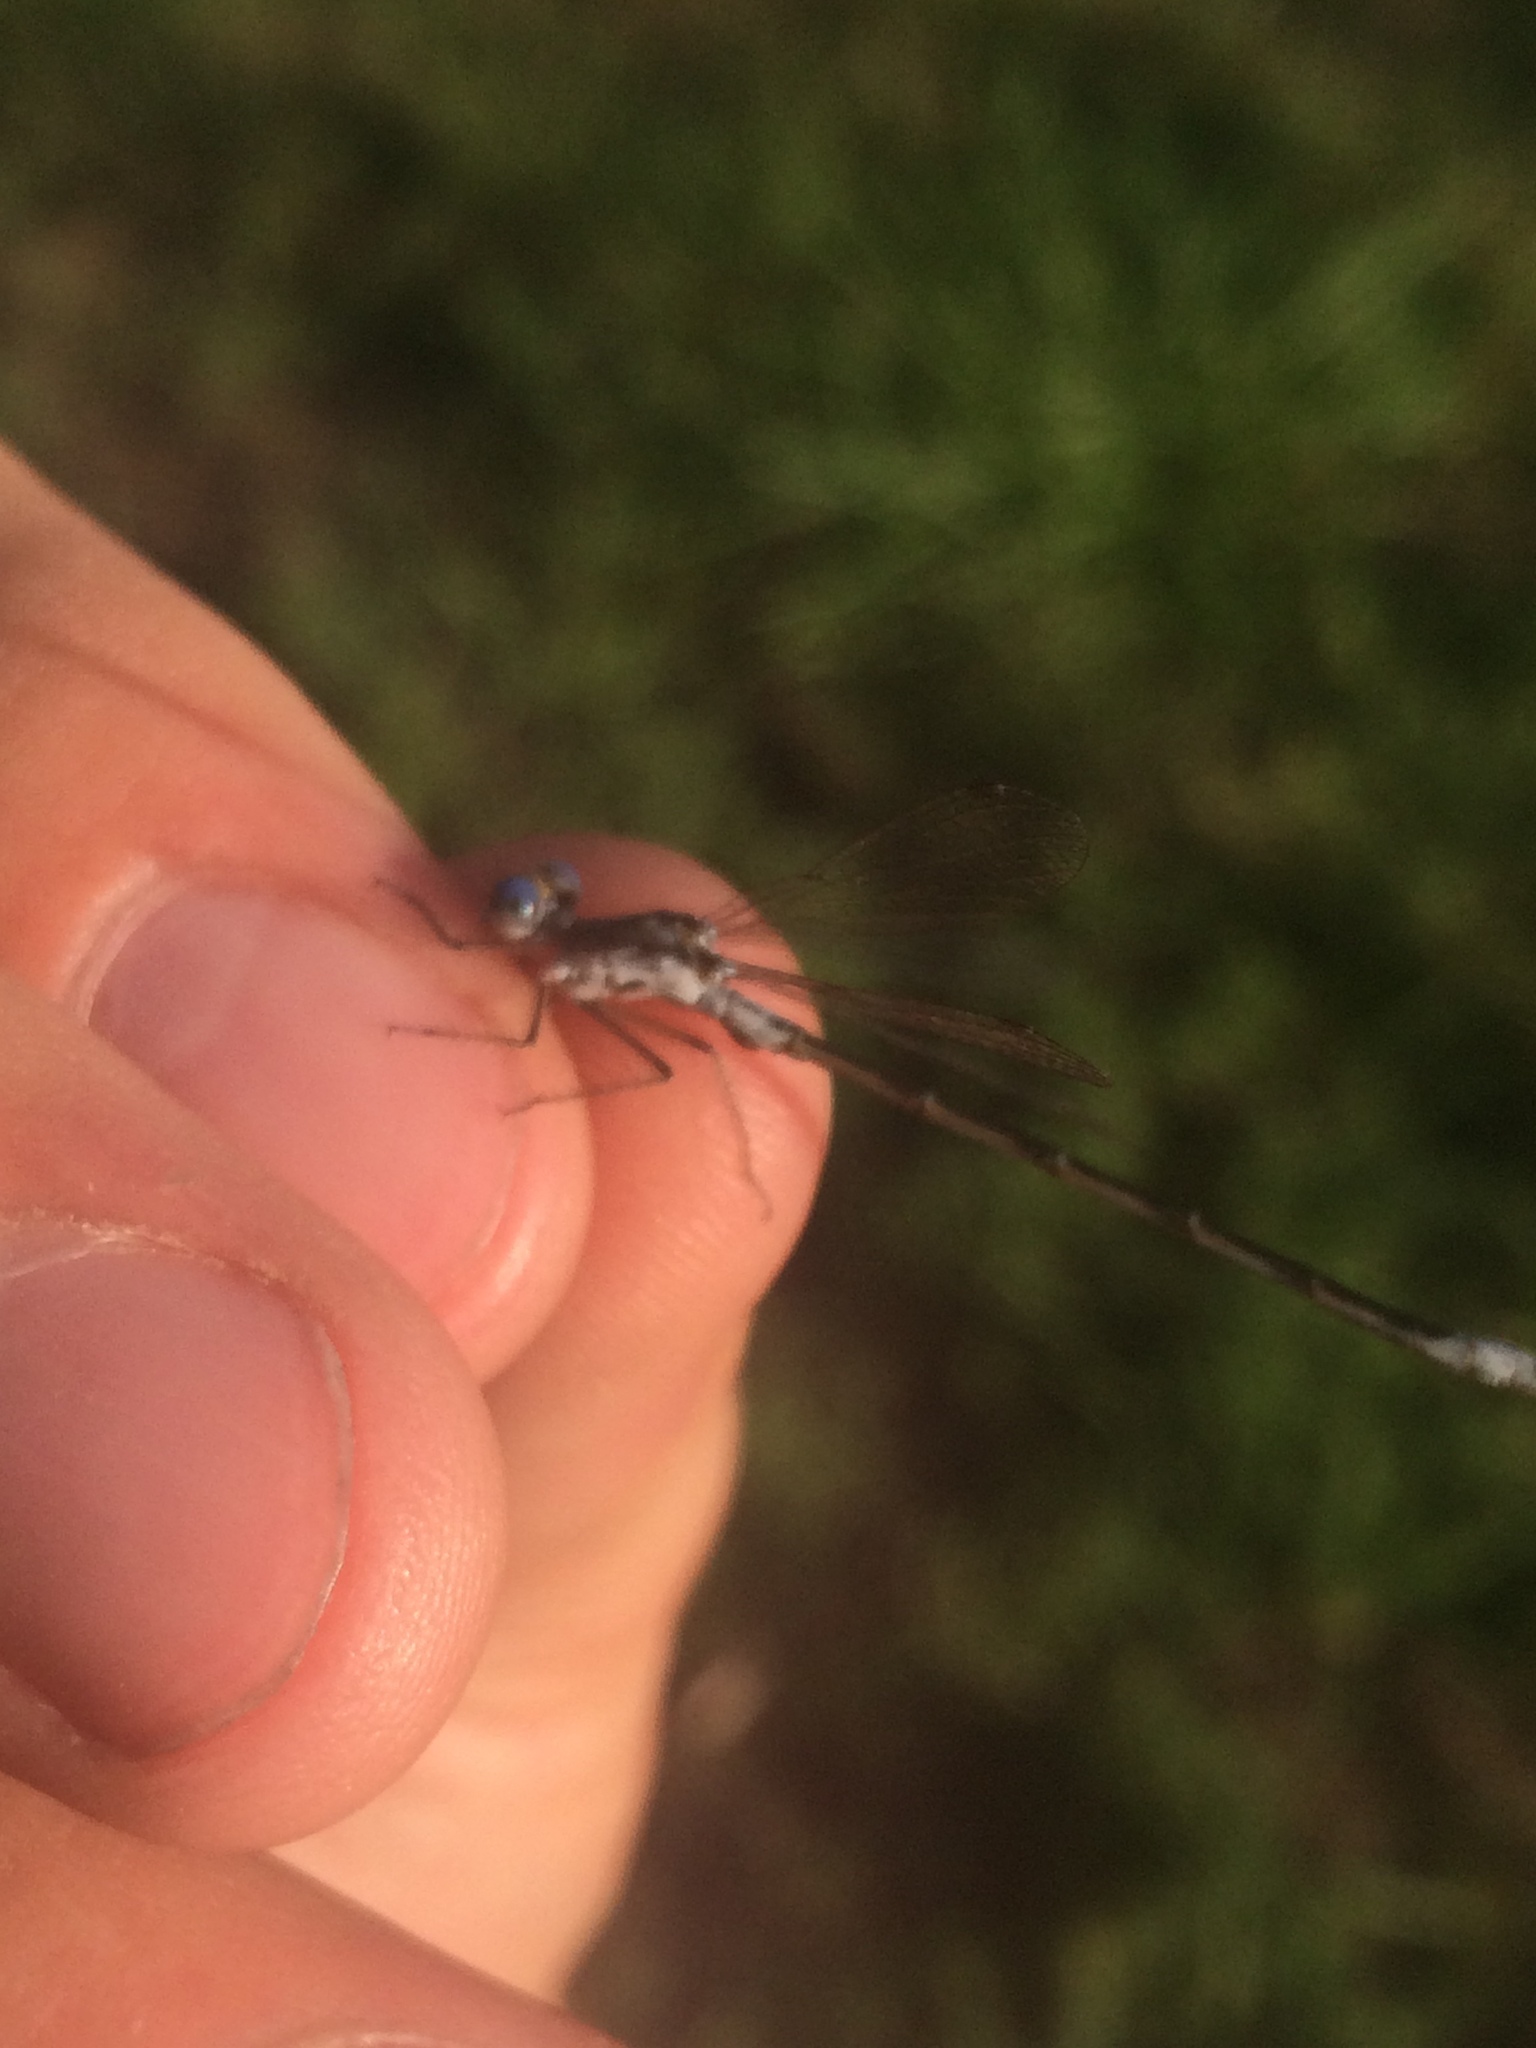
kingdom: Animalia
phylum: Arthropoda
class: Insecta
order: Odonata
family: Lestidae
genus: Lestes
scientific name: Lestes congener
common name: Spotted spreadwing
